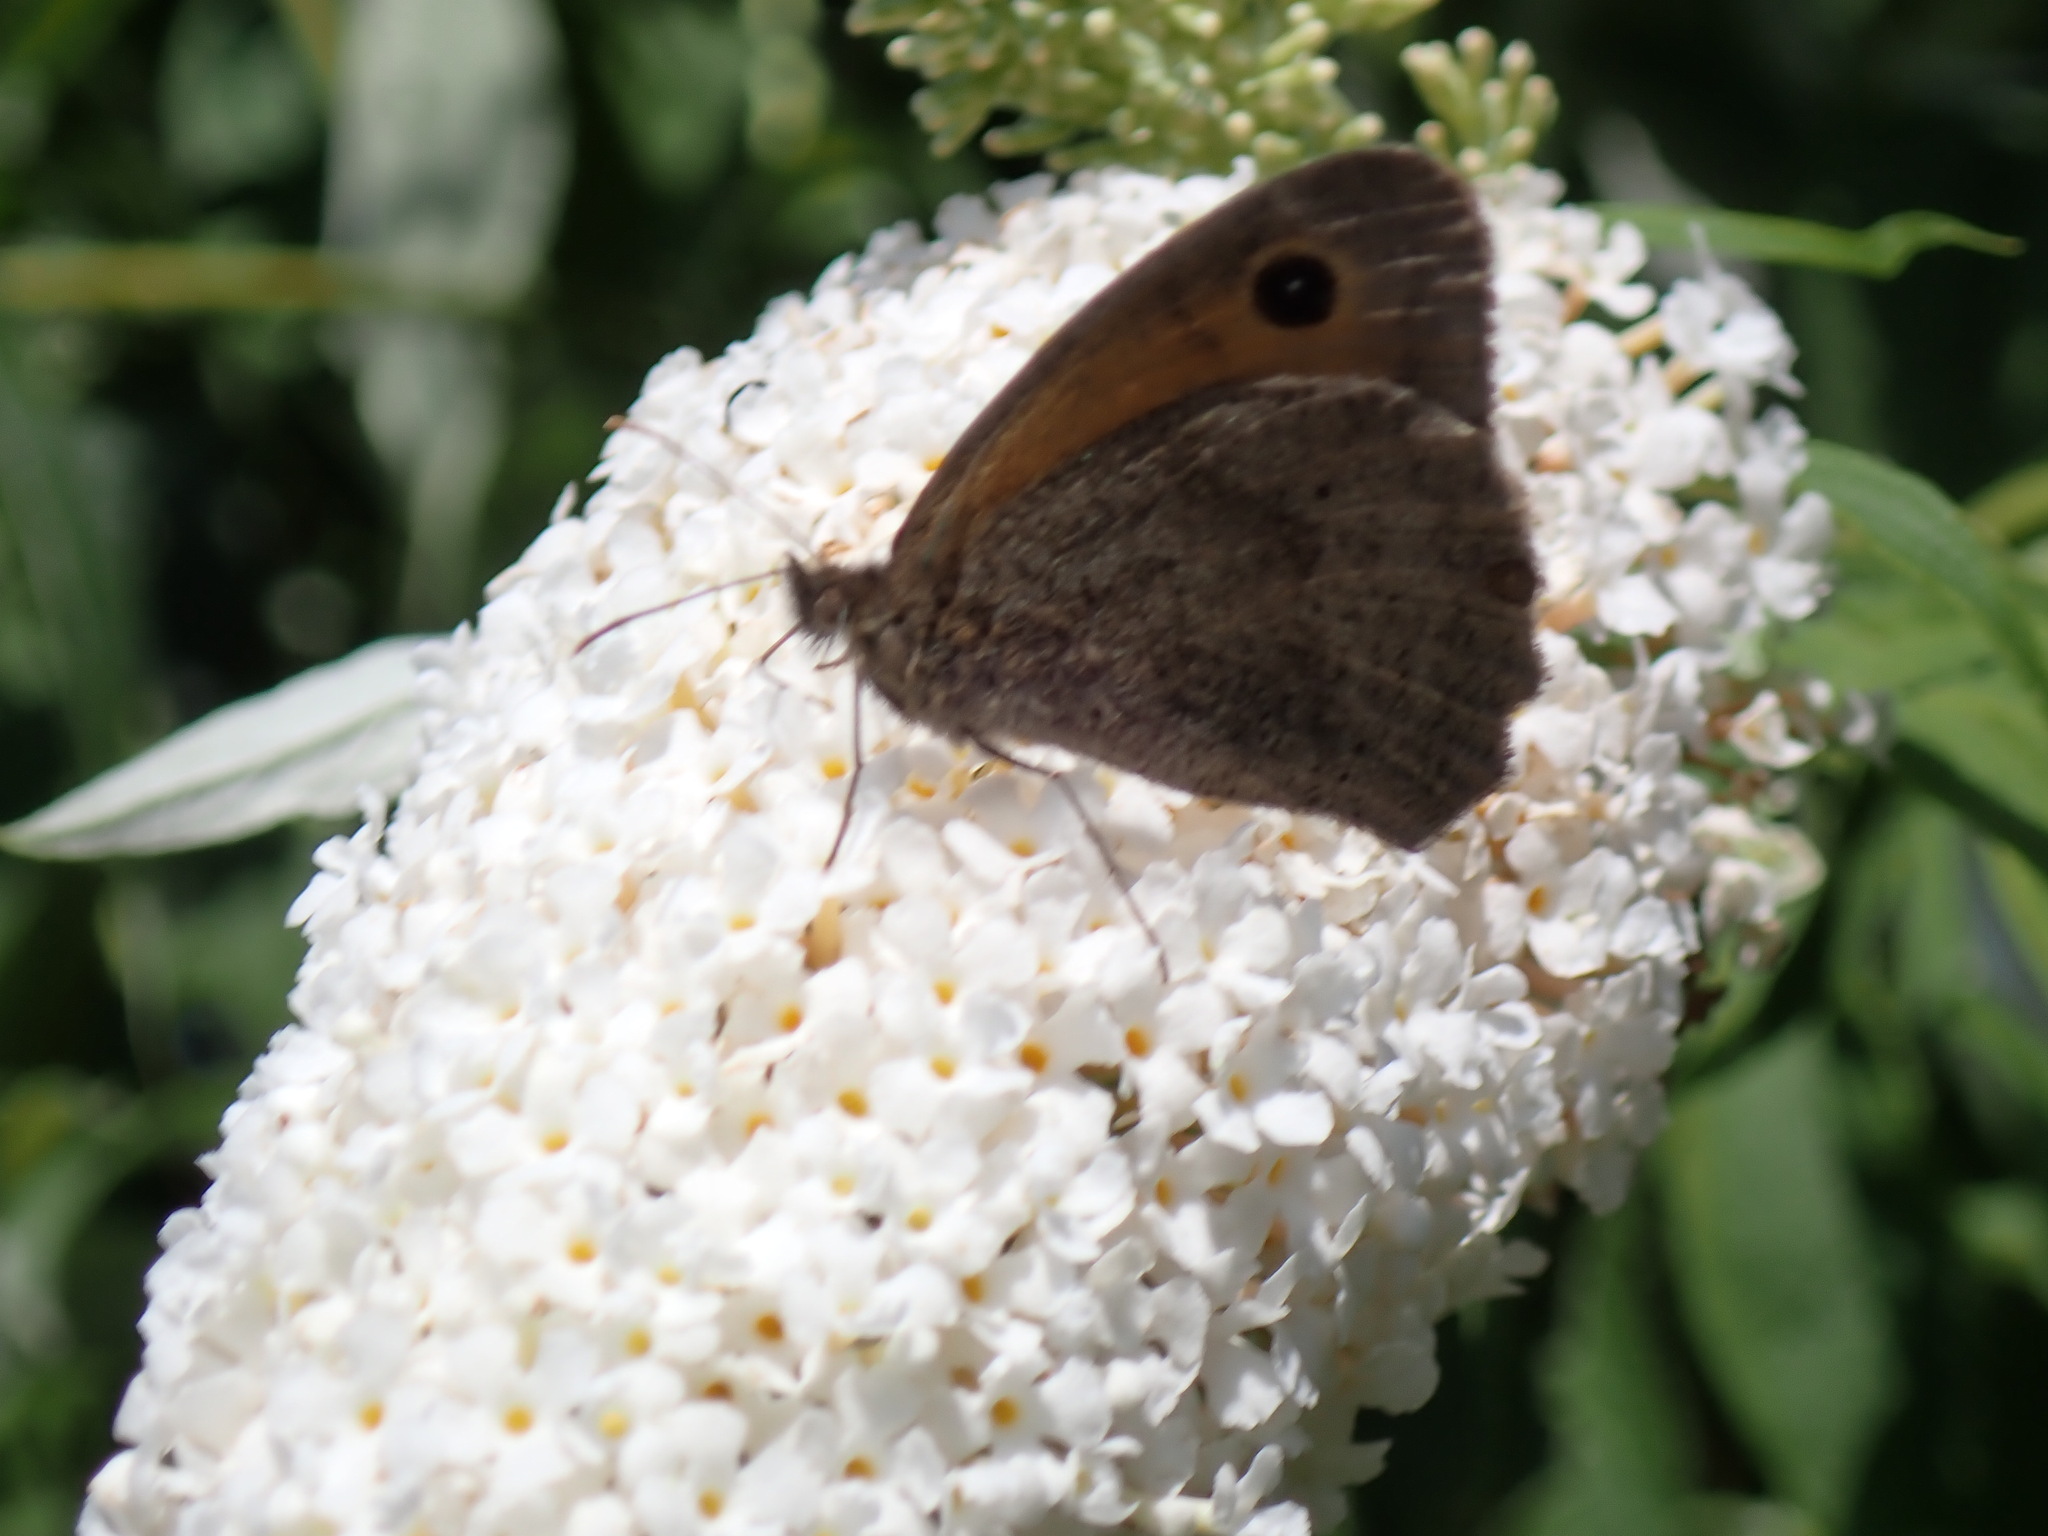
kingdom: Animalia
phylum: Arthropoda
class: Insecta
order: Lepidoptera
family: Nymphalidae
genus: Maniola
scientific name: Maniola jurtina
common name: Meadow brown
